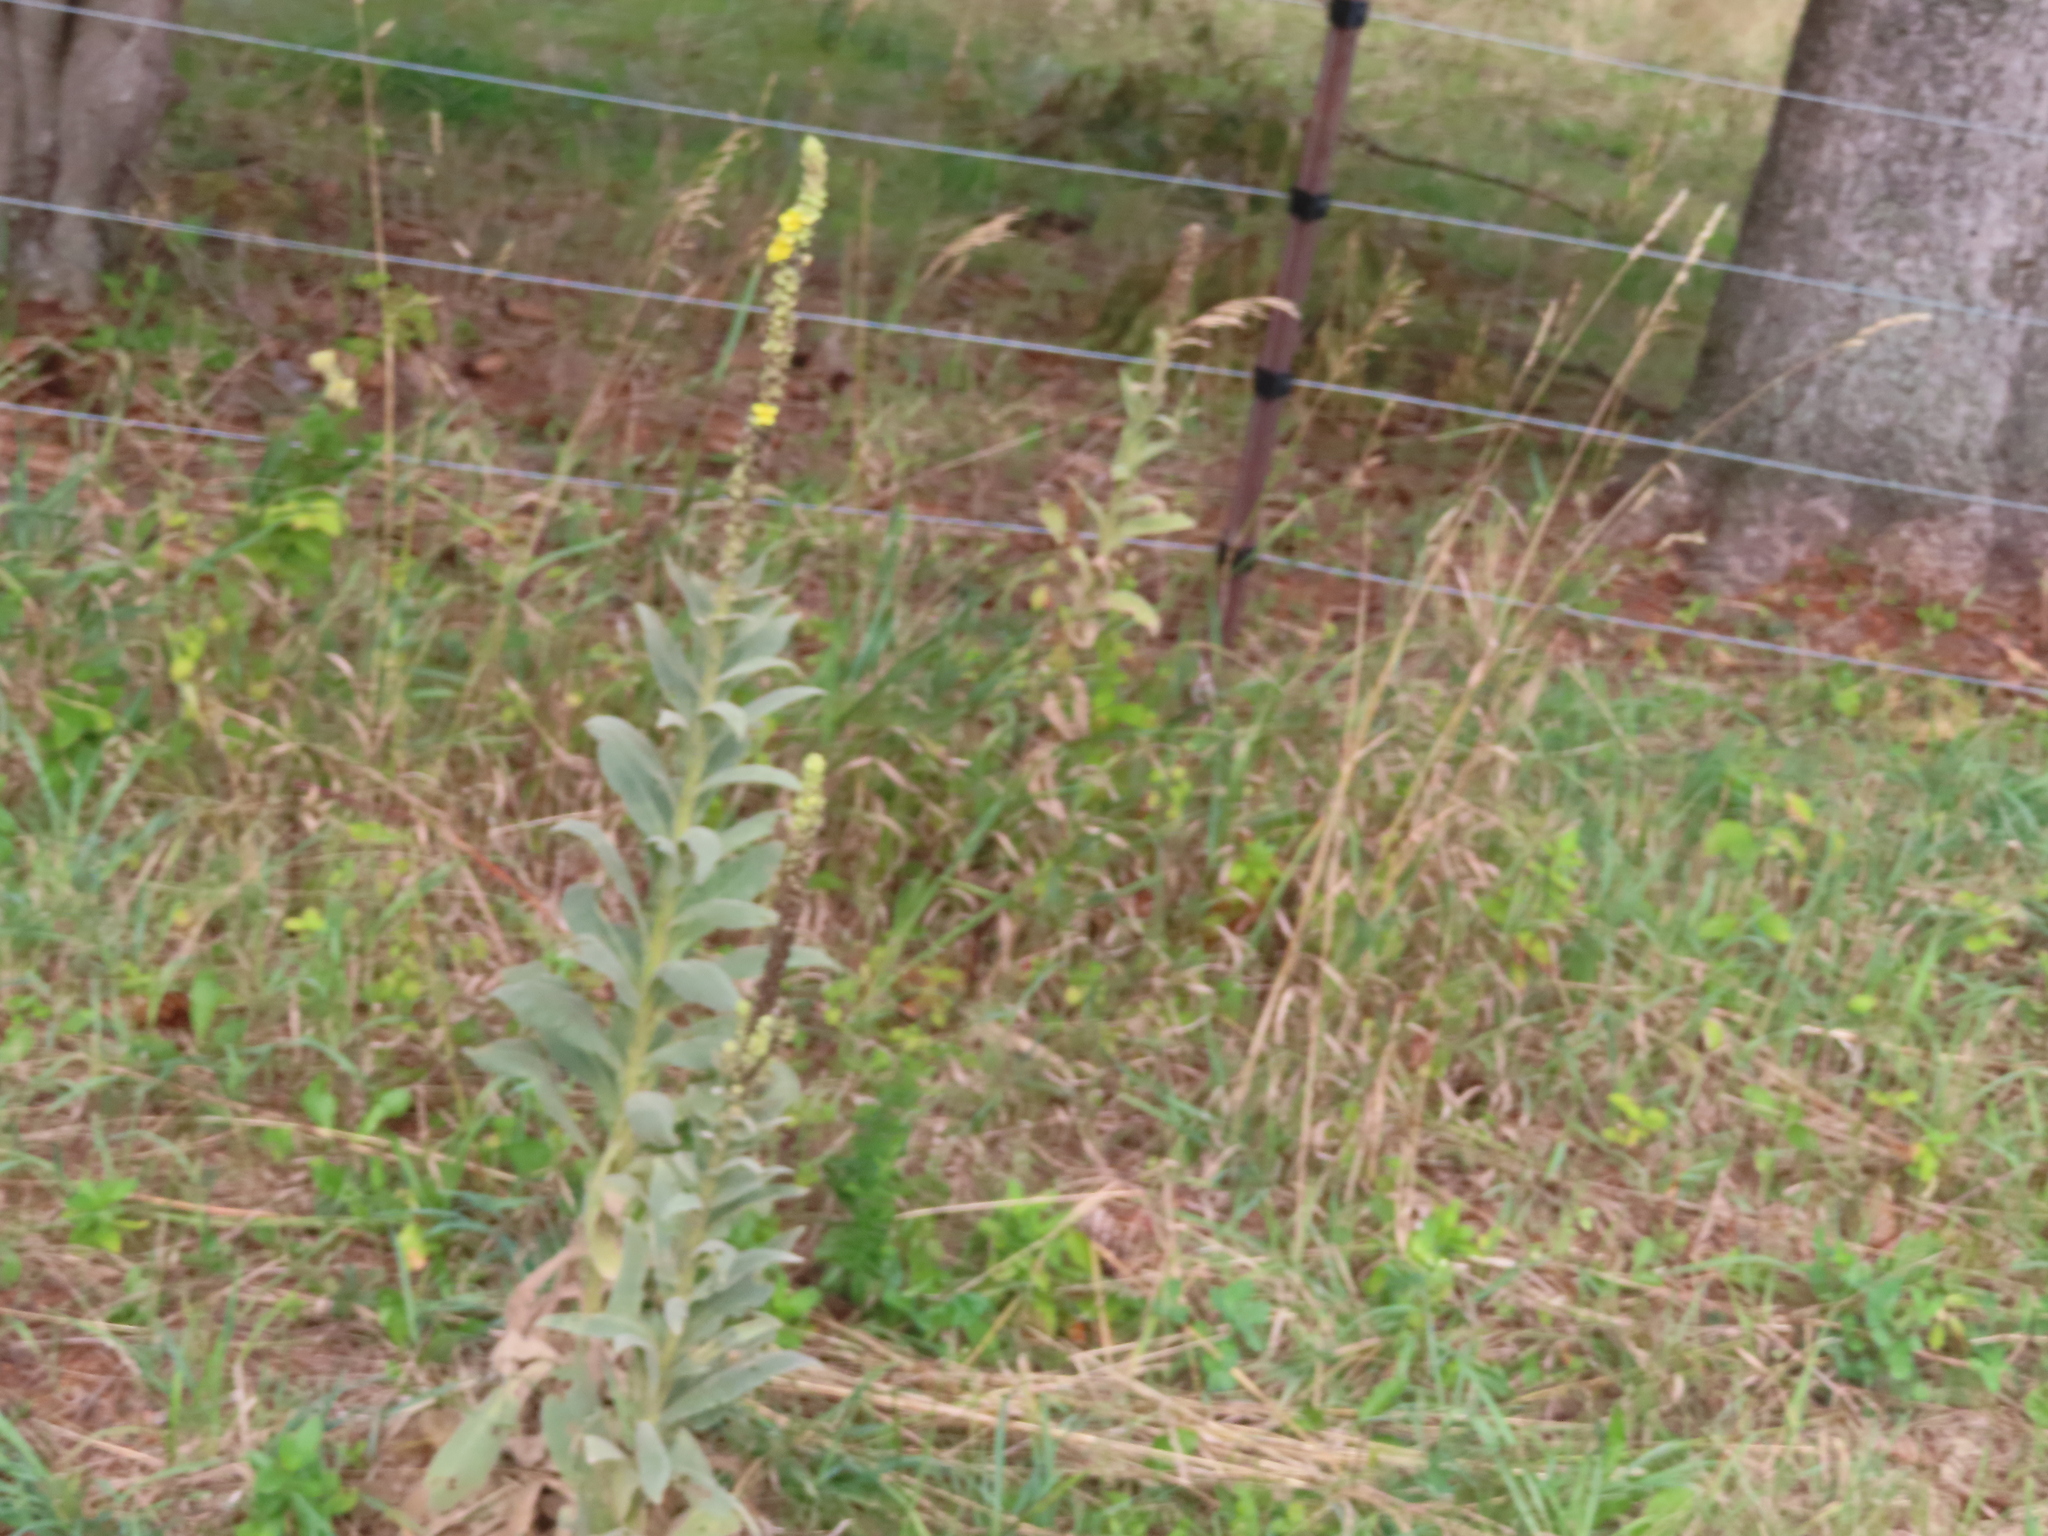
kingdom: Plantae
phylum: Tracheophyta
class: Magnoliopsida
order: Lamiales
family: Scrophulariaceae
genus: Verbascum
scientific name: Verbascum thapsus
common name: Common mullein
